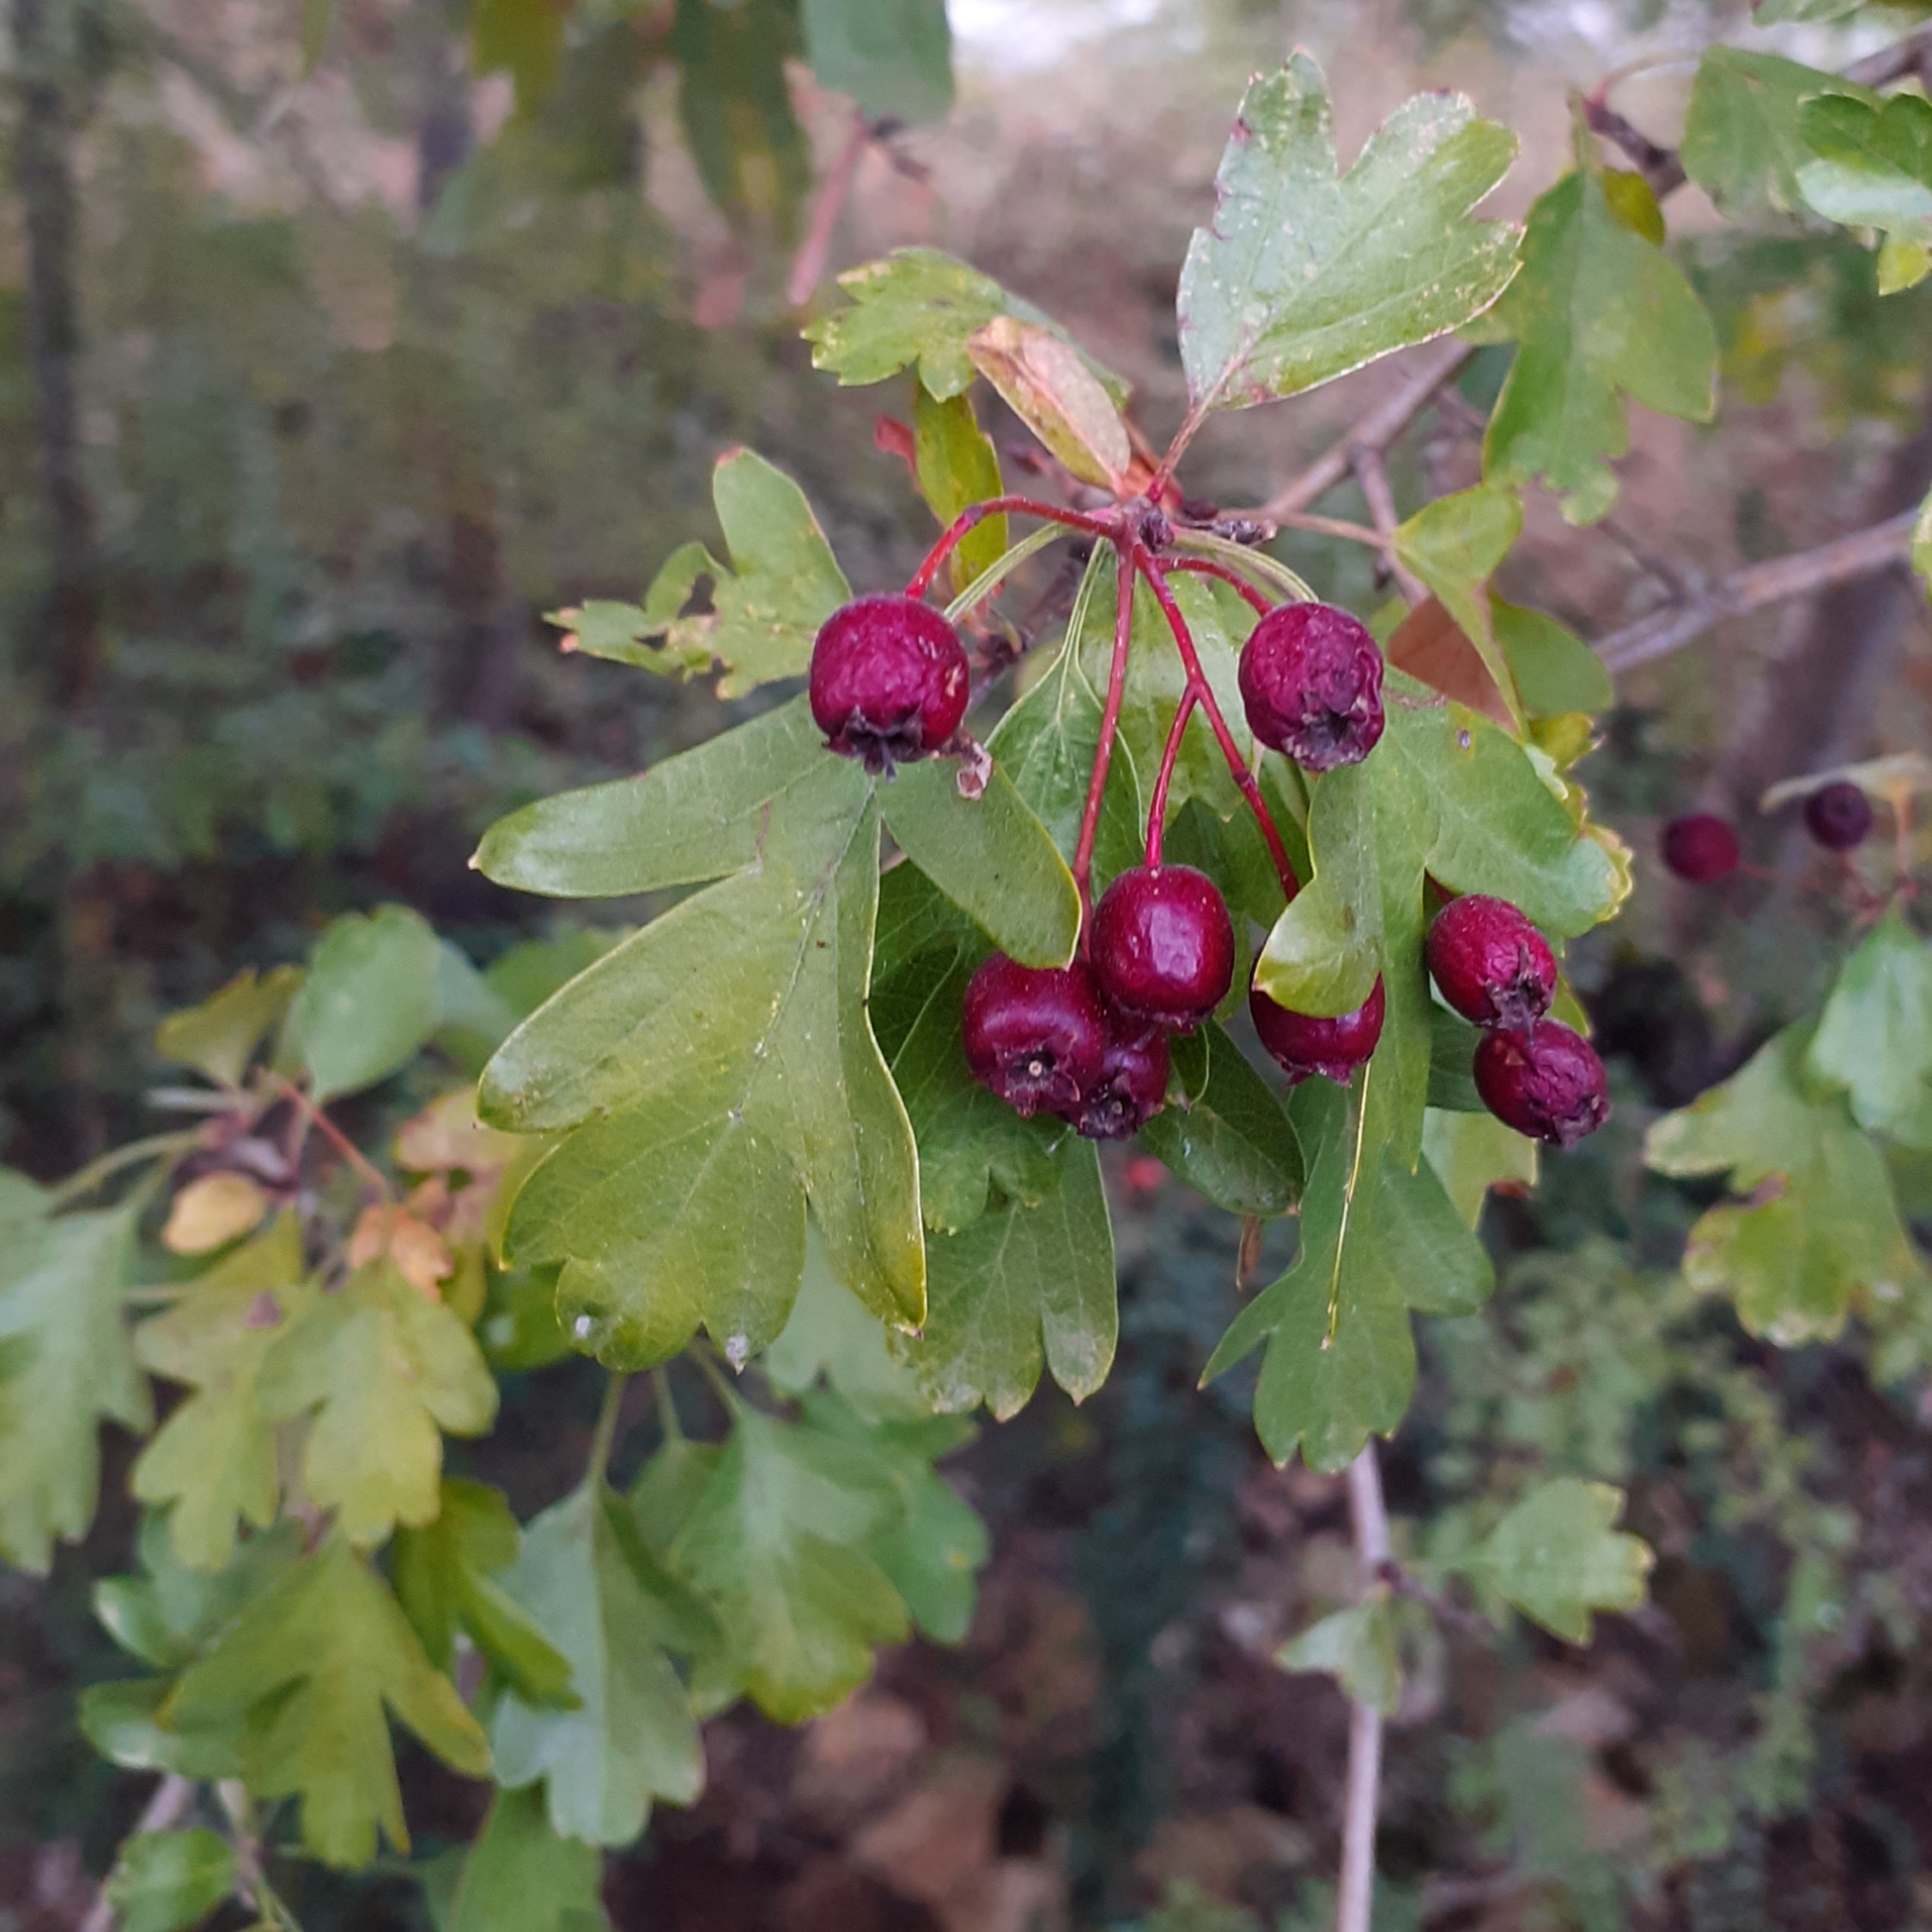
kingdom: Plantae
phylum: Tracheophyta
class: Magnoliopsida
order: Rosales
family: Rosaceae
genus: Crataegus
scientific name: Crataegus monogyna
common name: Hawthorn
